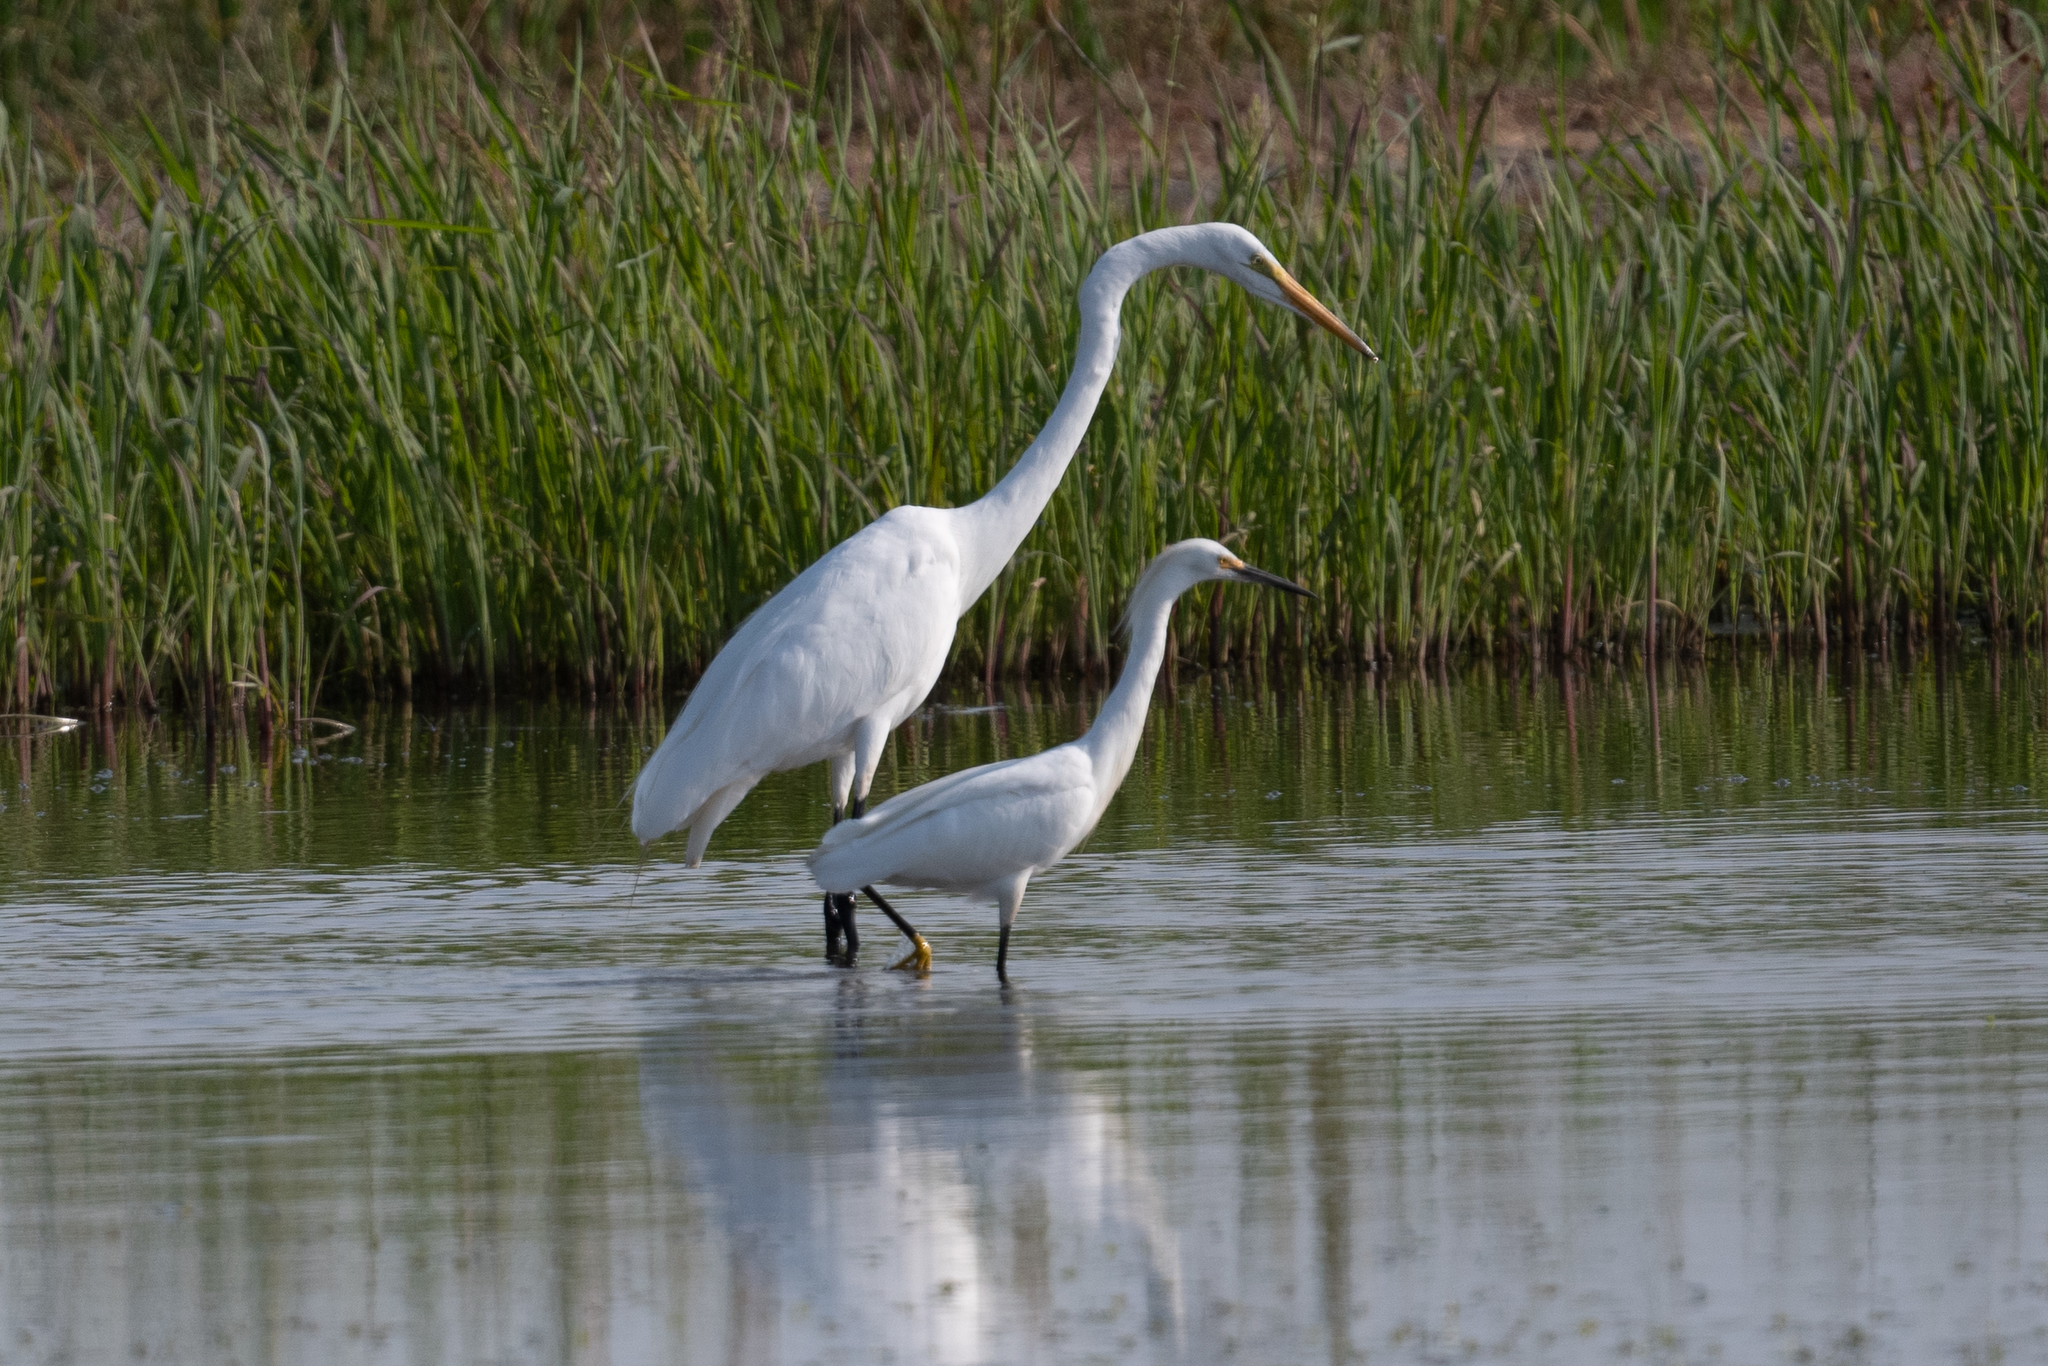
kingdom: Animalia
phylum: Chordata
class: Aves
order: Pelecaniformes
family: Ardeidae
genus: Egretta
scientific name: Egretta thula
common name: Snowy egret
